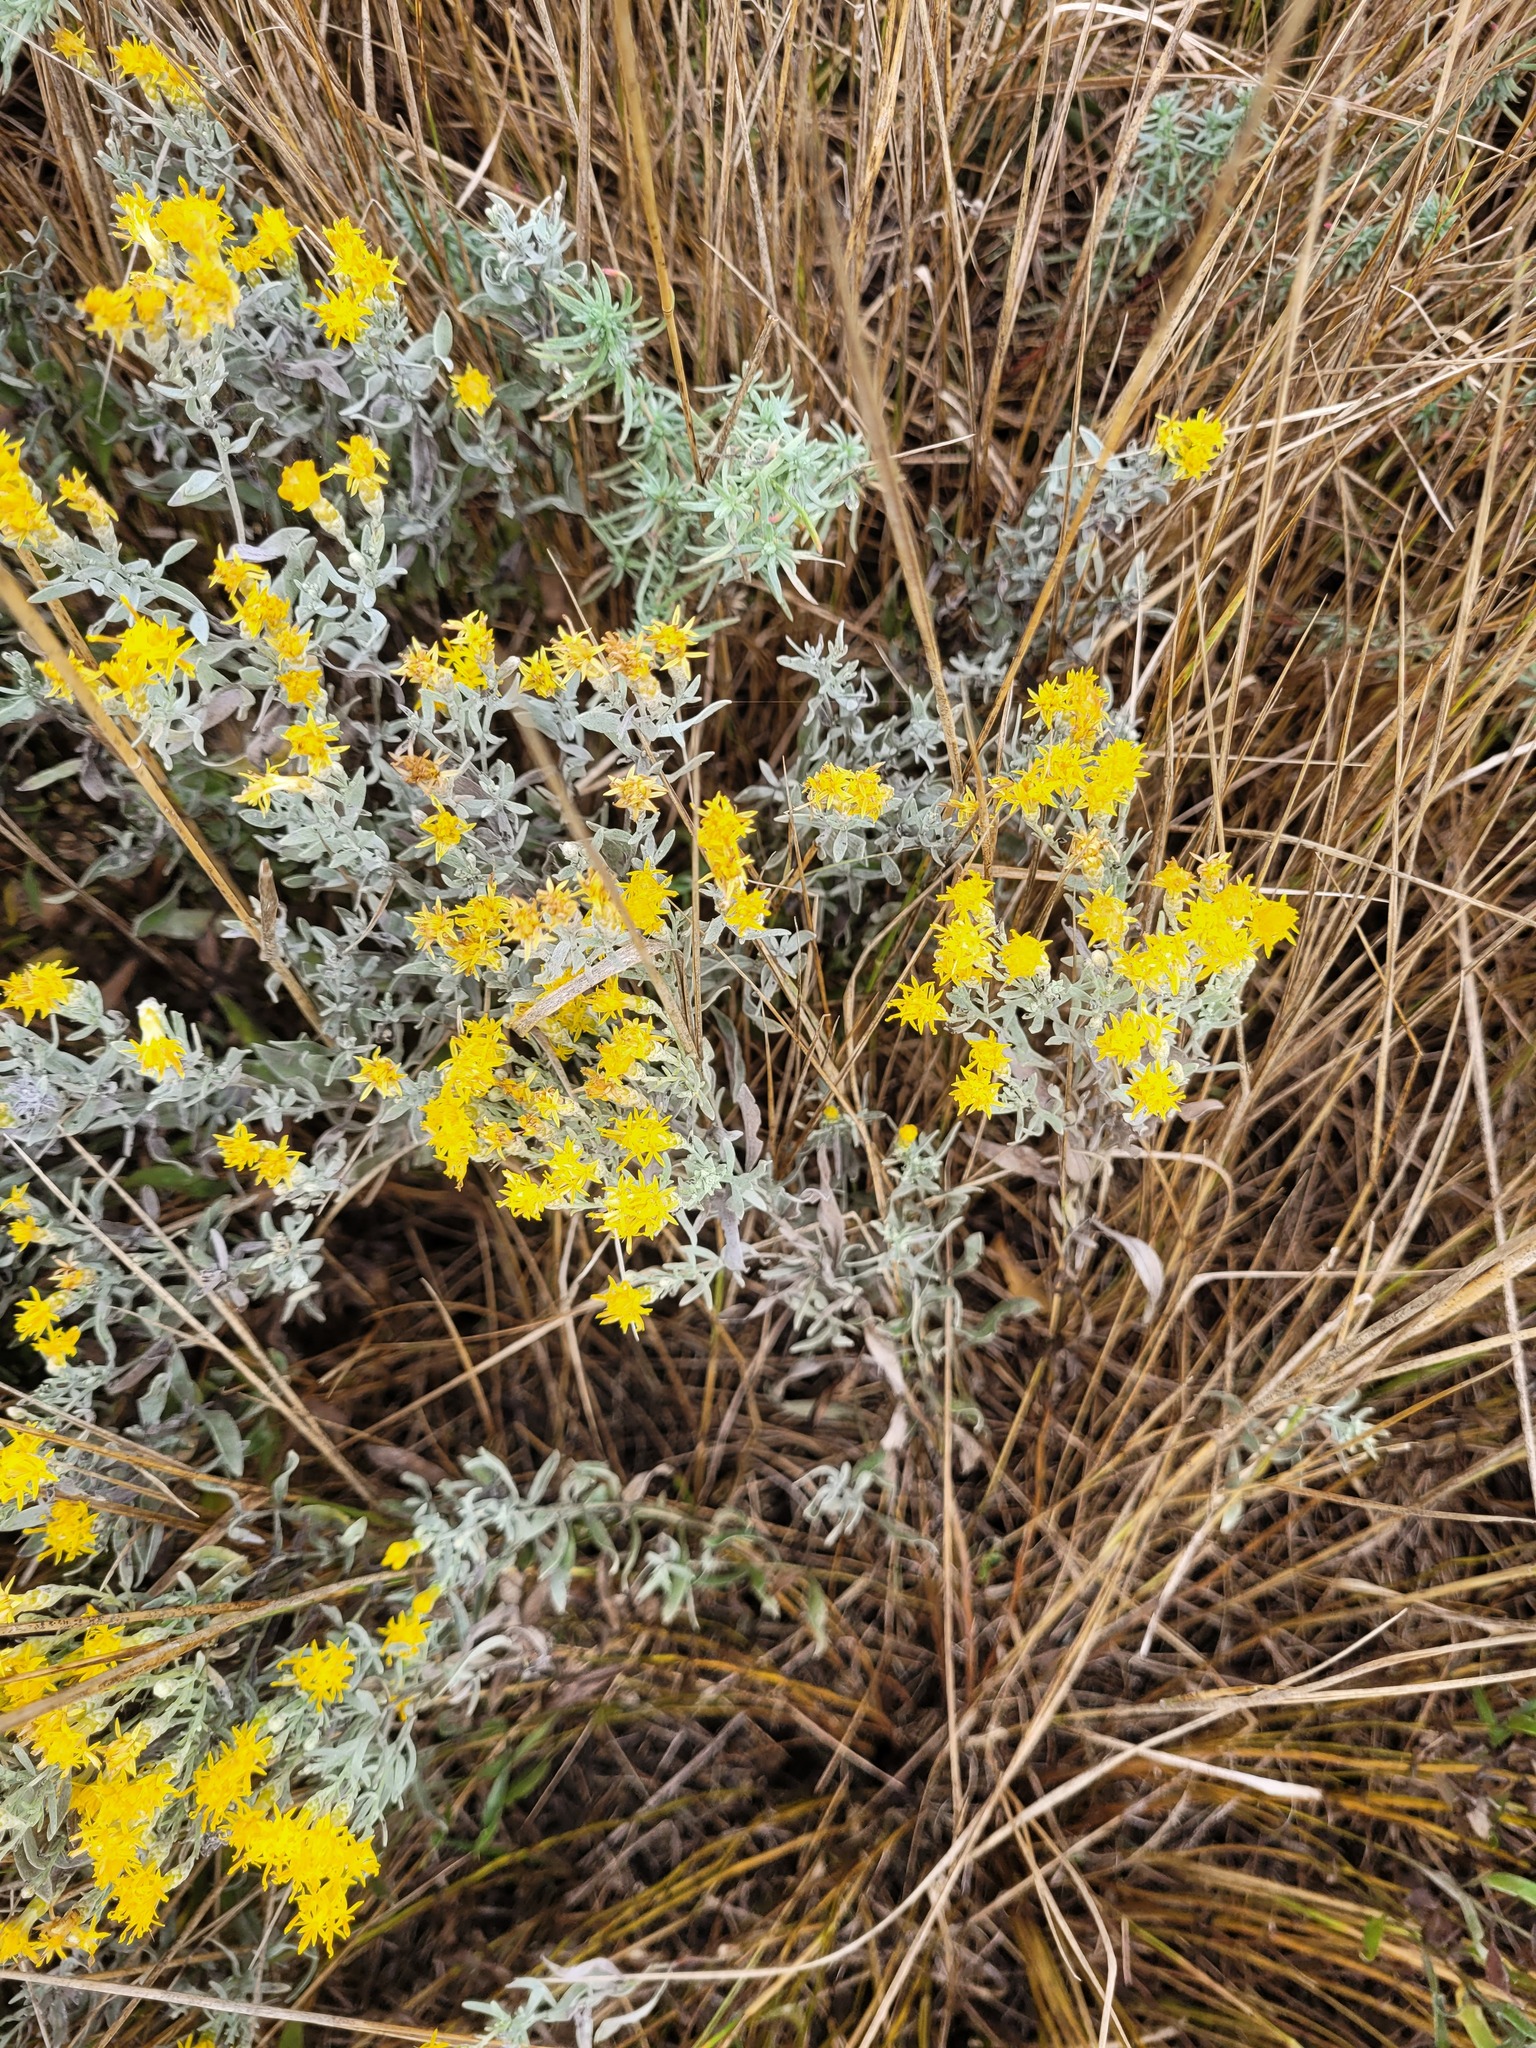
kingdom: Plantae
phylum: Tracheophyta
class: Magnoliopsida
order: Asterales
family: Asteraceae
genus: Galatella
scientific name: Galatella villosa
